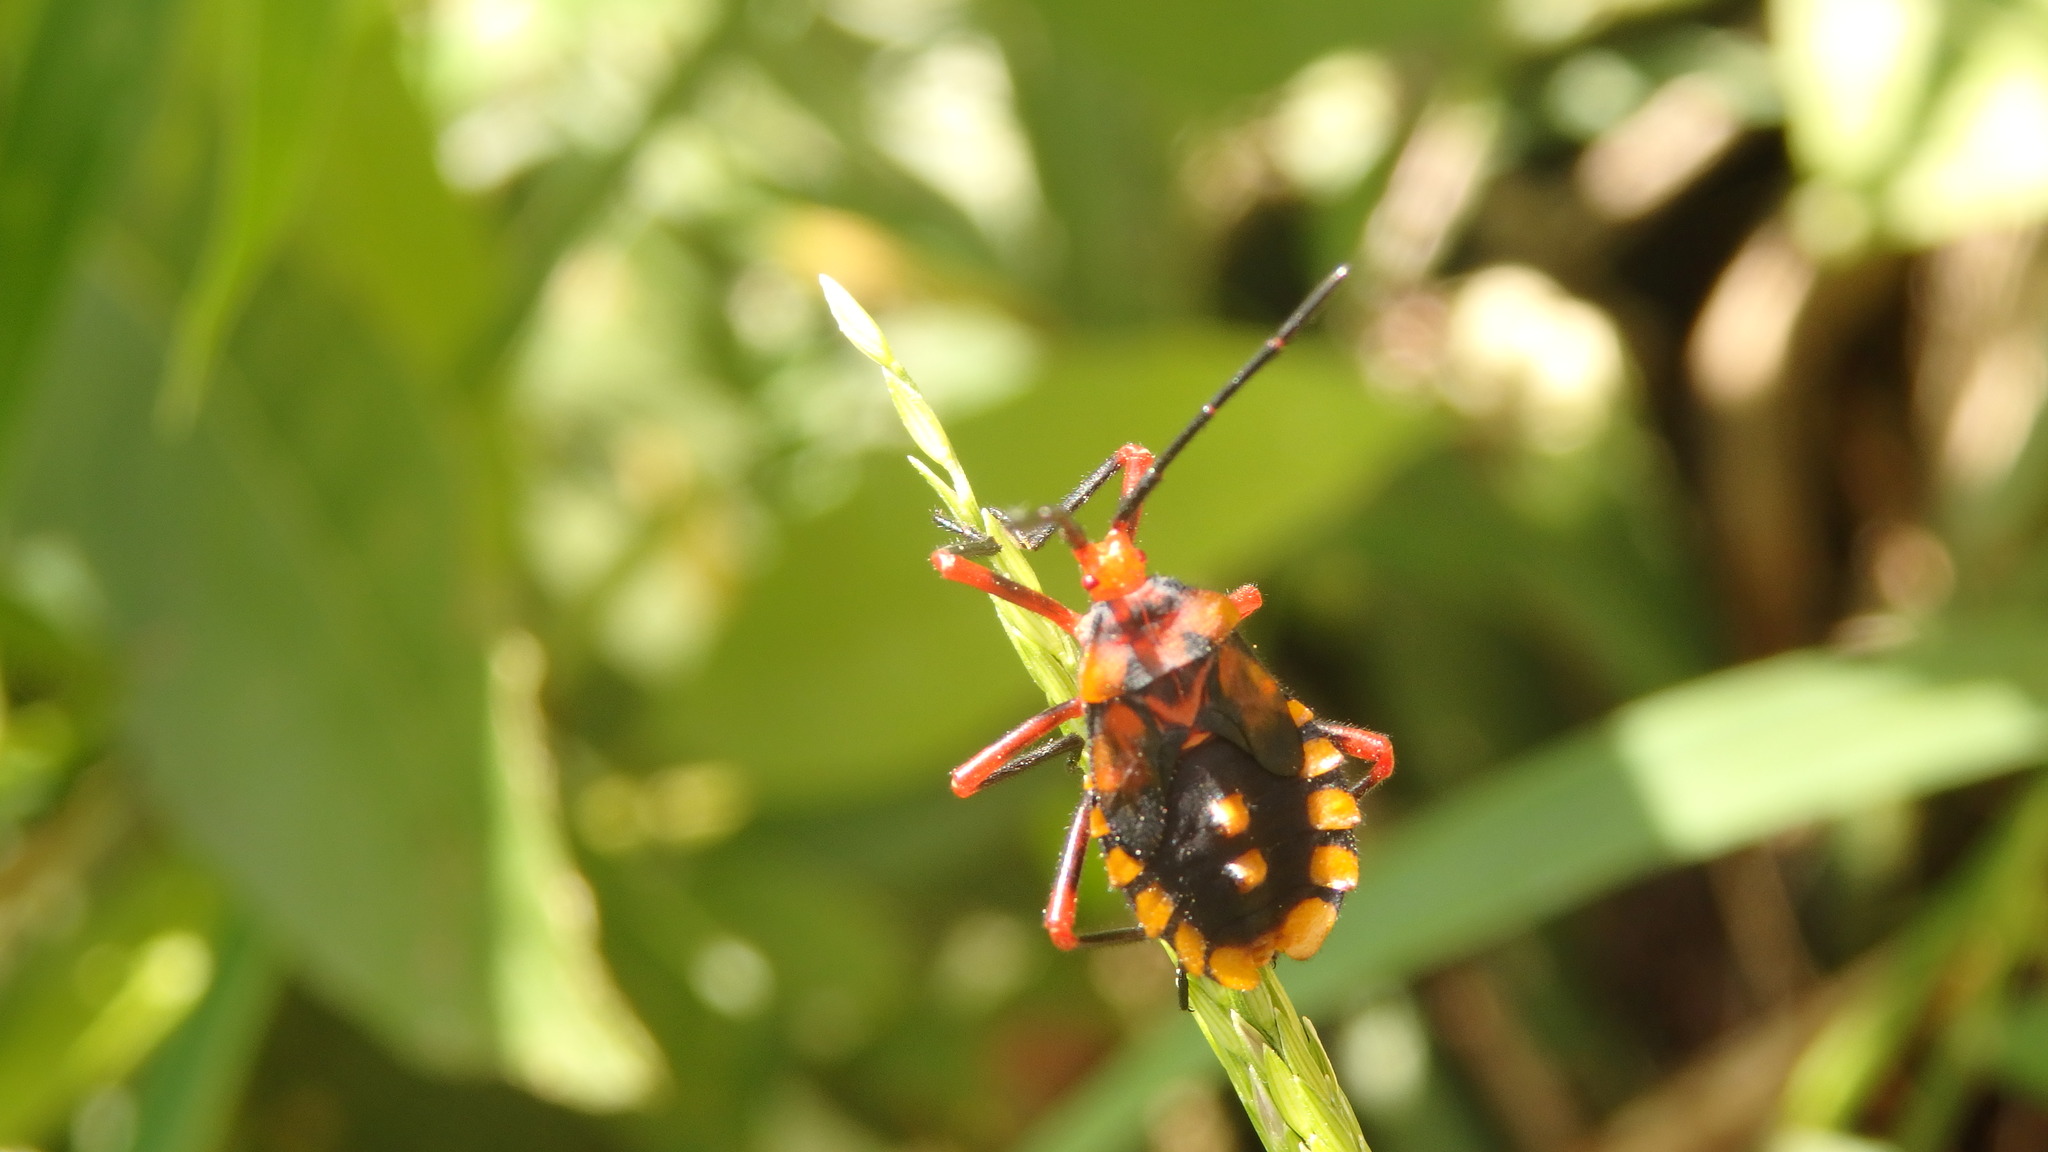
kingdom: Animalia
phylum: Arthropoda
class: Insecta
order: Hemiptera
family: Coreidae
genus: Spartocera
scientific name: Spartocera fusca
